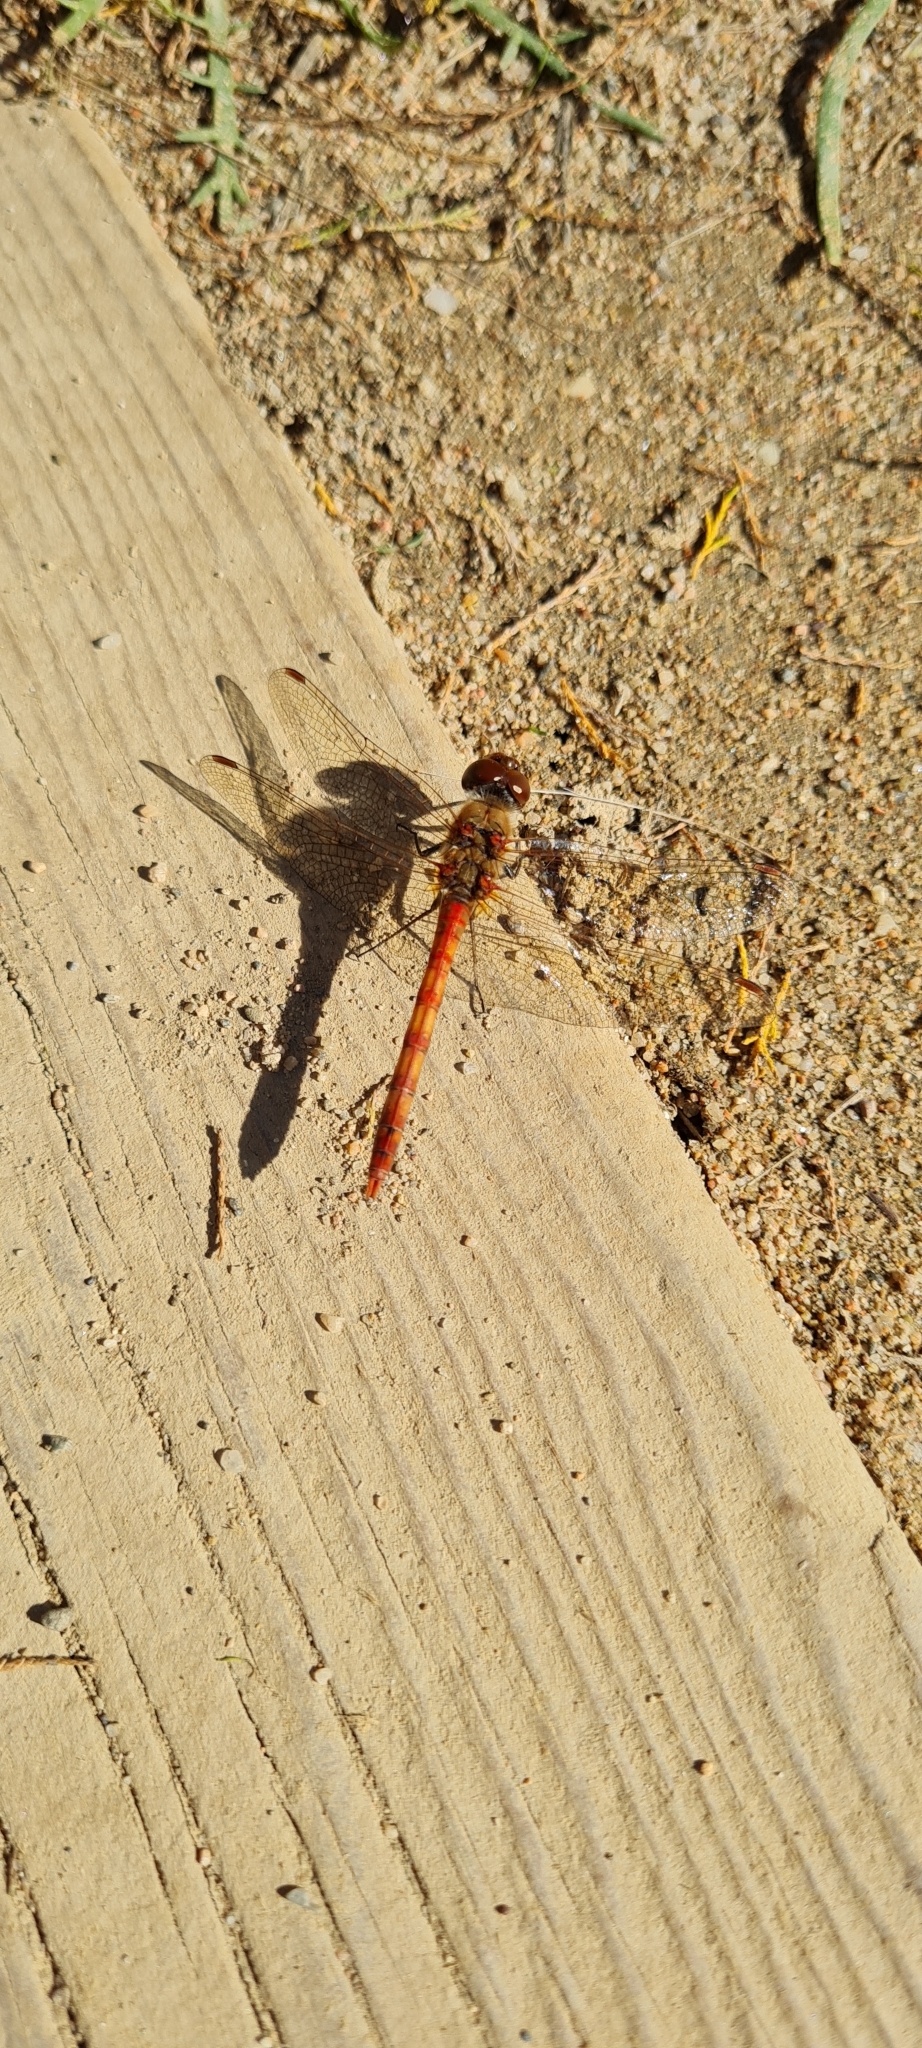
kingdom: Animalia
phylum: Arthropoda
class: Insecta
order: Odonata
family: Libellulidae
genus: Sympetrum
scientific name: Sympetrum striolatum
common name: Common darter
